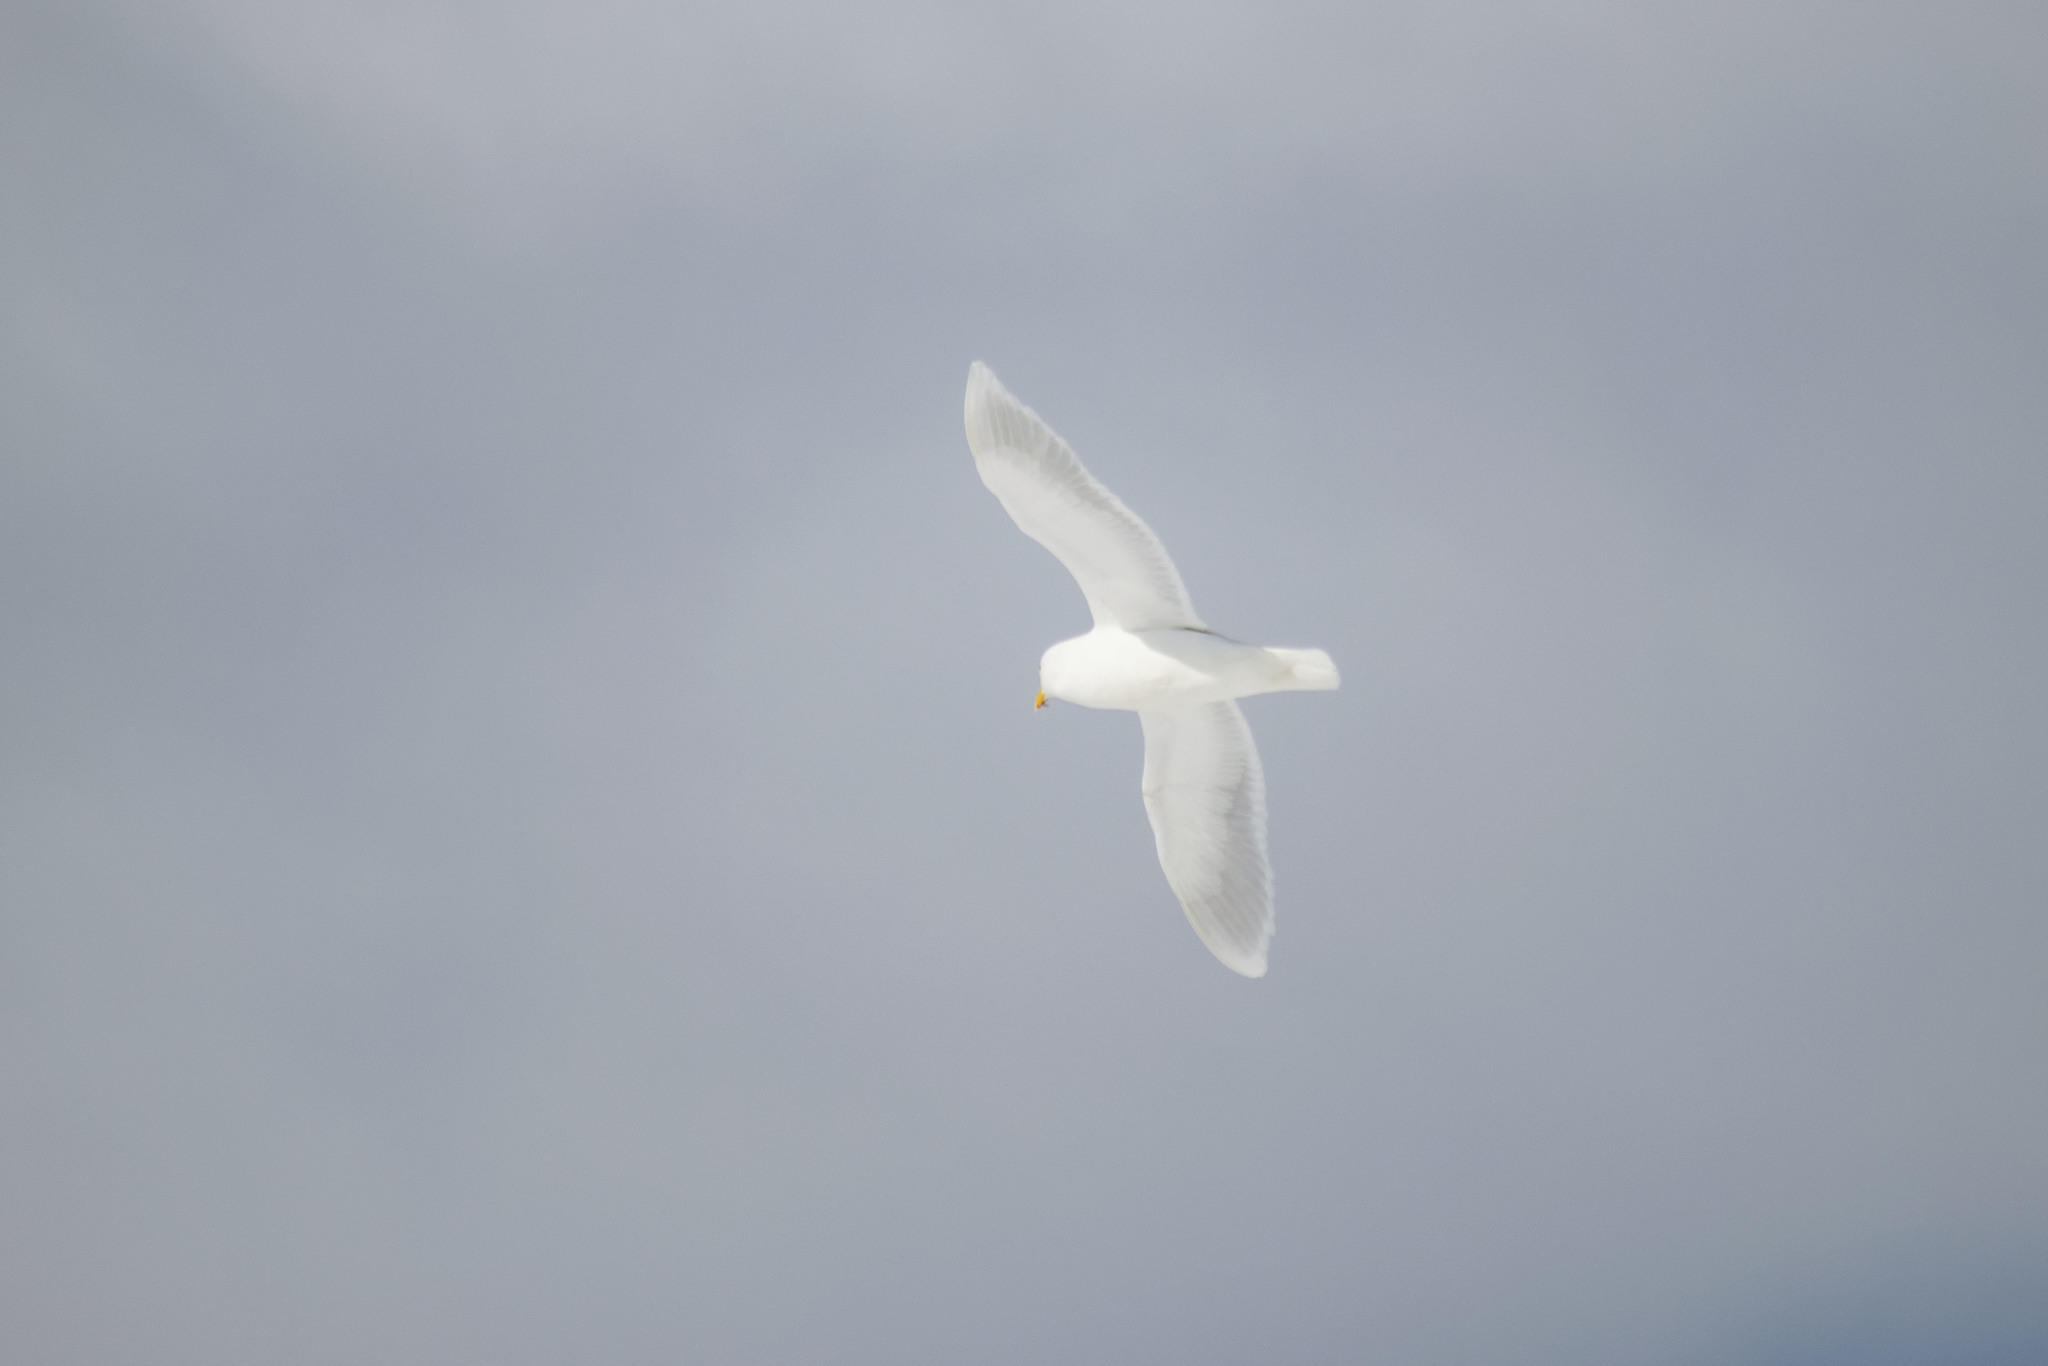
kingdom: Animalia
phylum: Chordata
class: Aves
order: Charadriiformes
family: Laridae
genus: Larus
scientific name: Larus hyperboreus
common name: Glaucous gull
